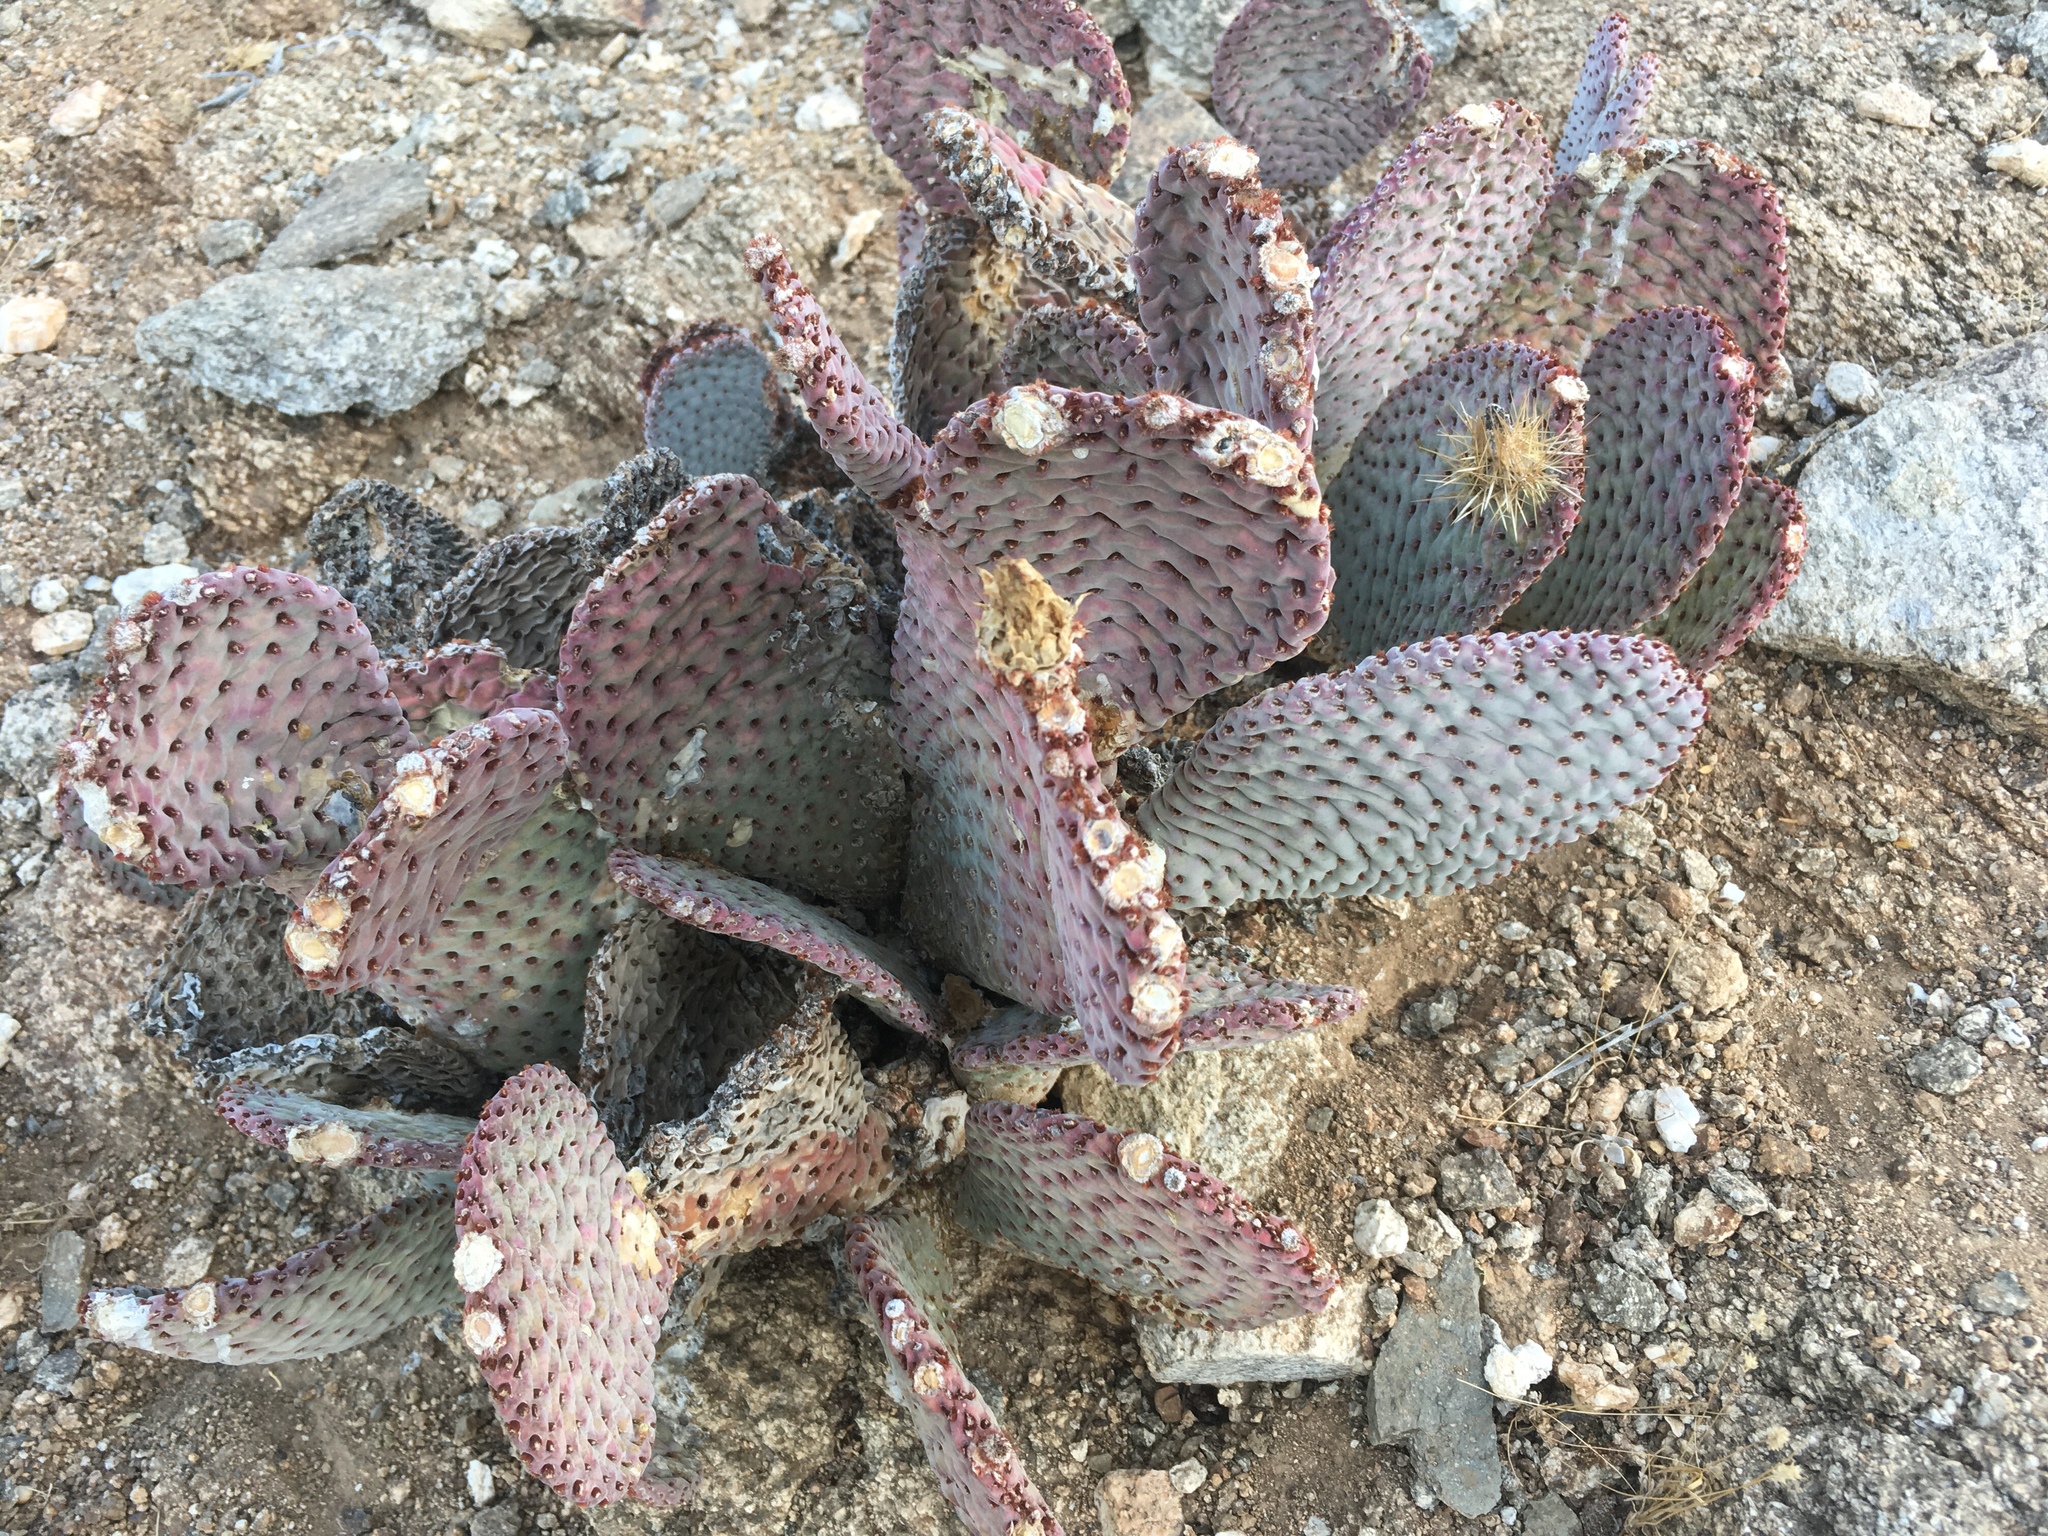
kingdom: Plantae
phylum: Tracheophyta
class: Magnoliopsida
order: Caryophyllales
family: Cactaceae
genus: Opuntia
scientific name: Opuntia basilaris
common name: Beavertail prickly-pear
